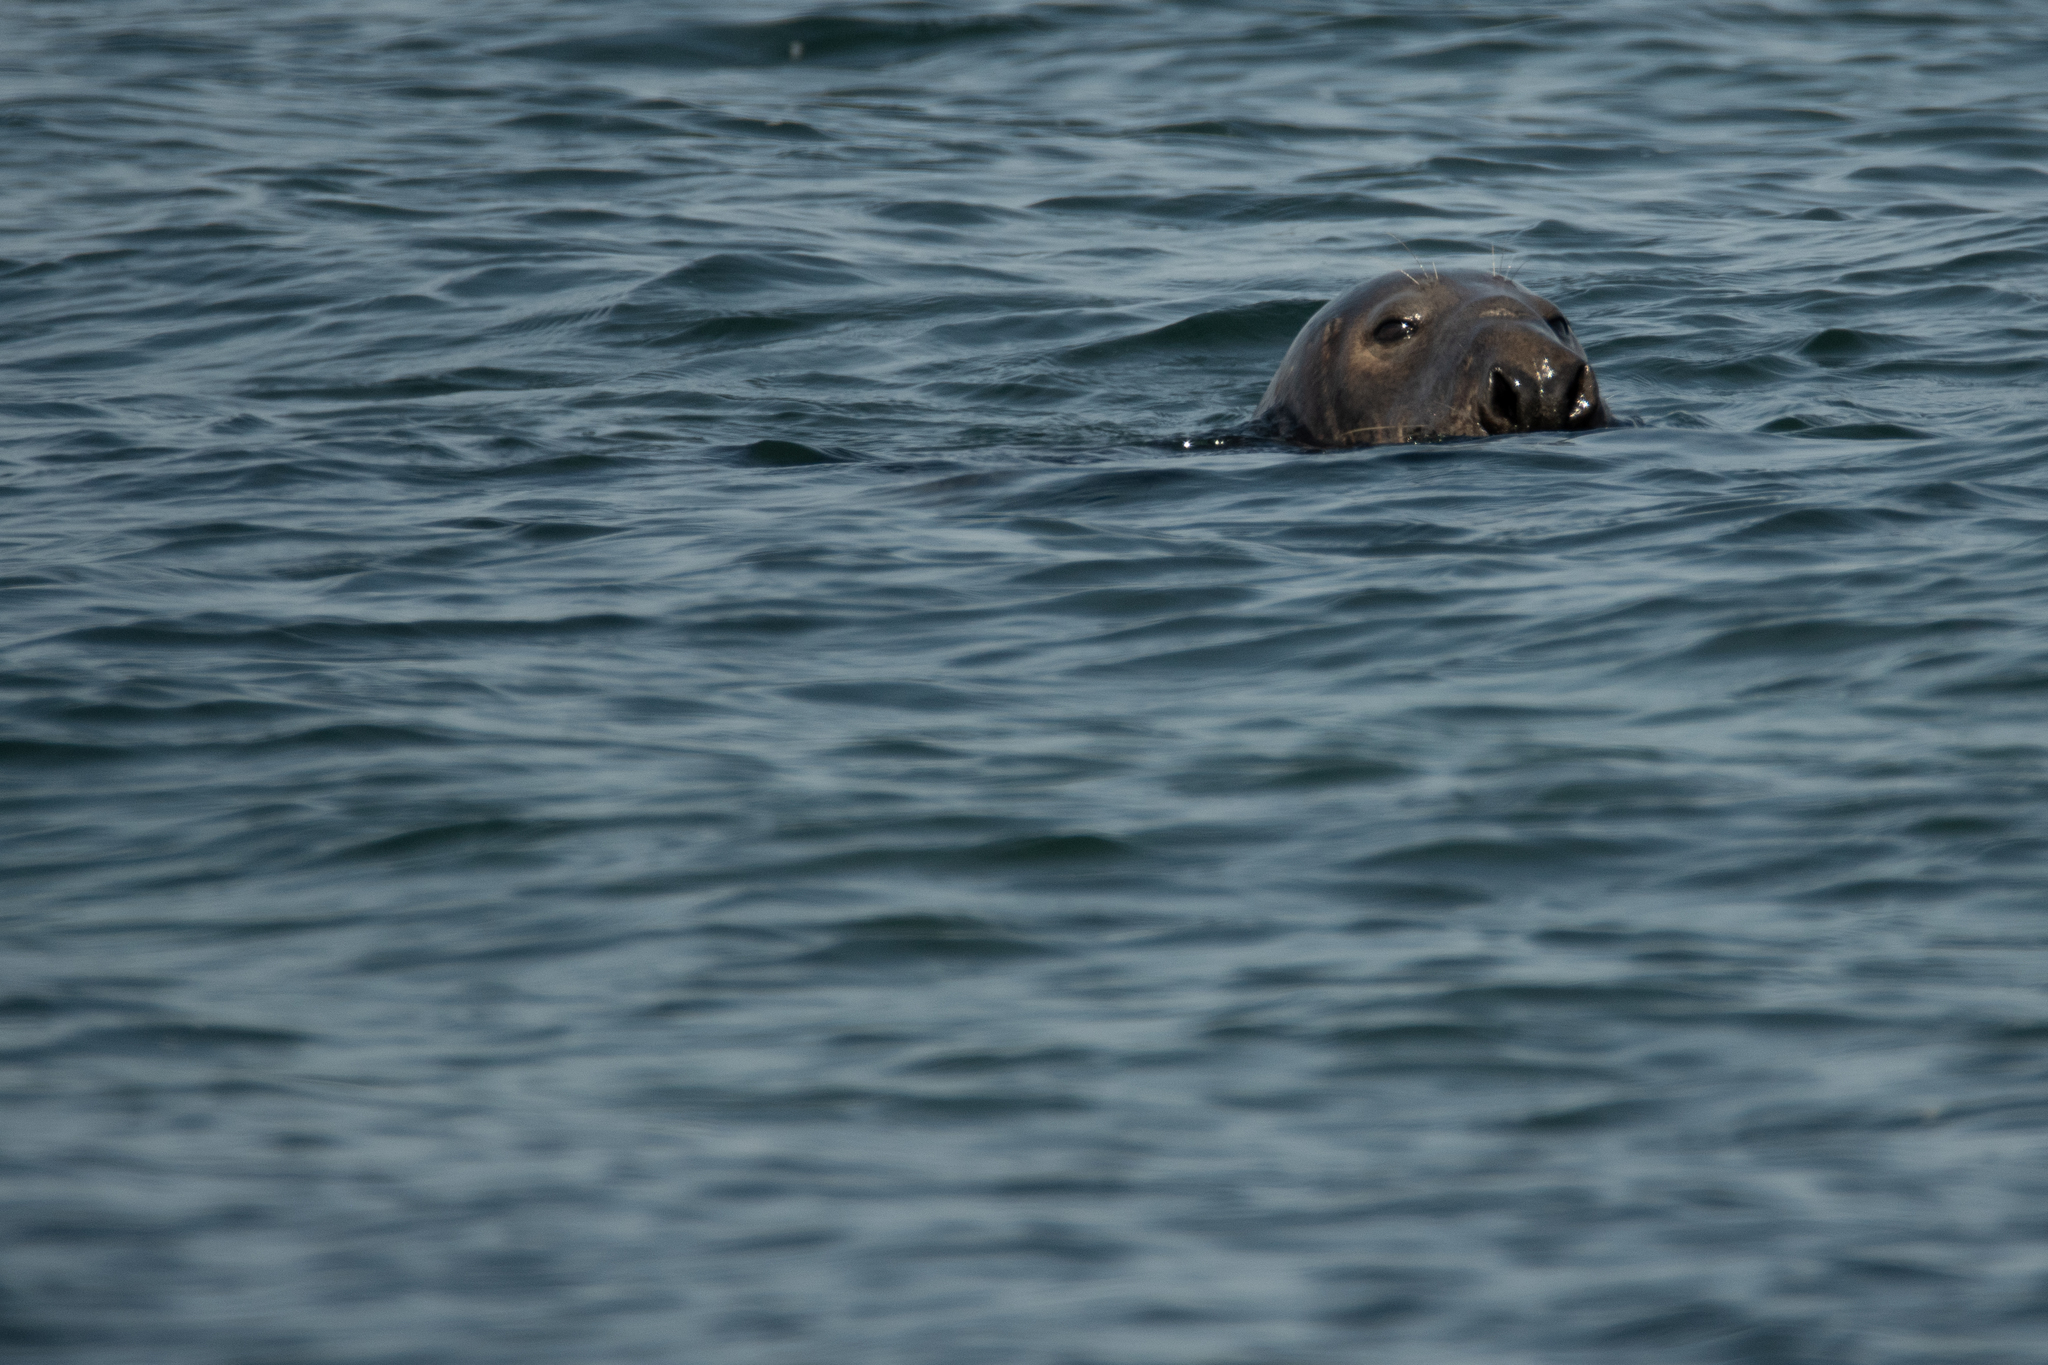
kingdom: Animalia
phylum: Chordata
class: Mammalia
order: Carnivora
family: Phocidae
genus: Halichoerus
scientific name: Halichoerus grypus
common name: Grey seal
